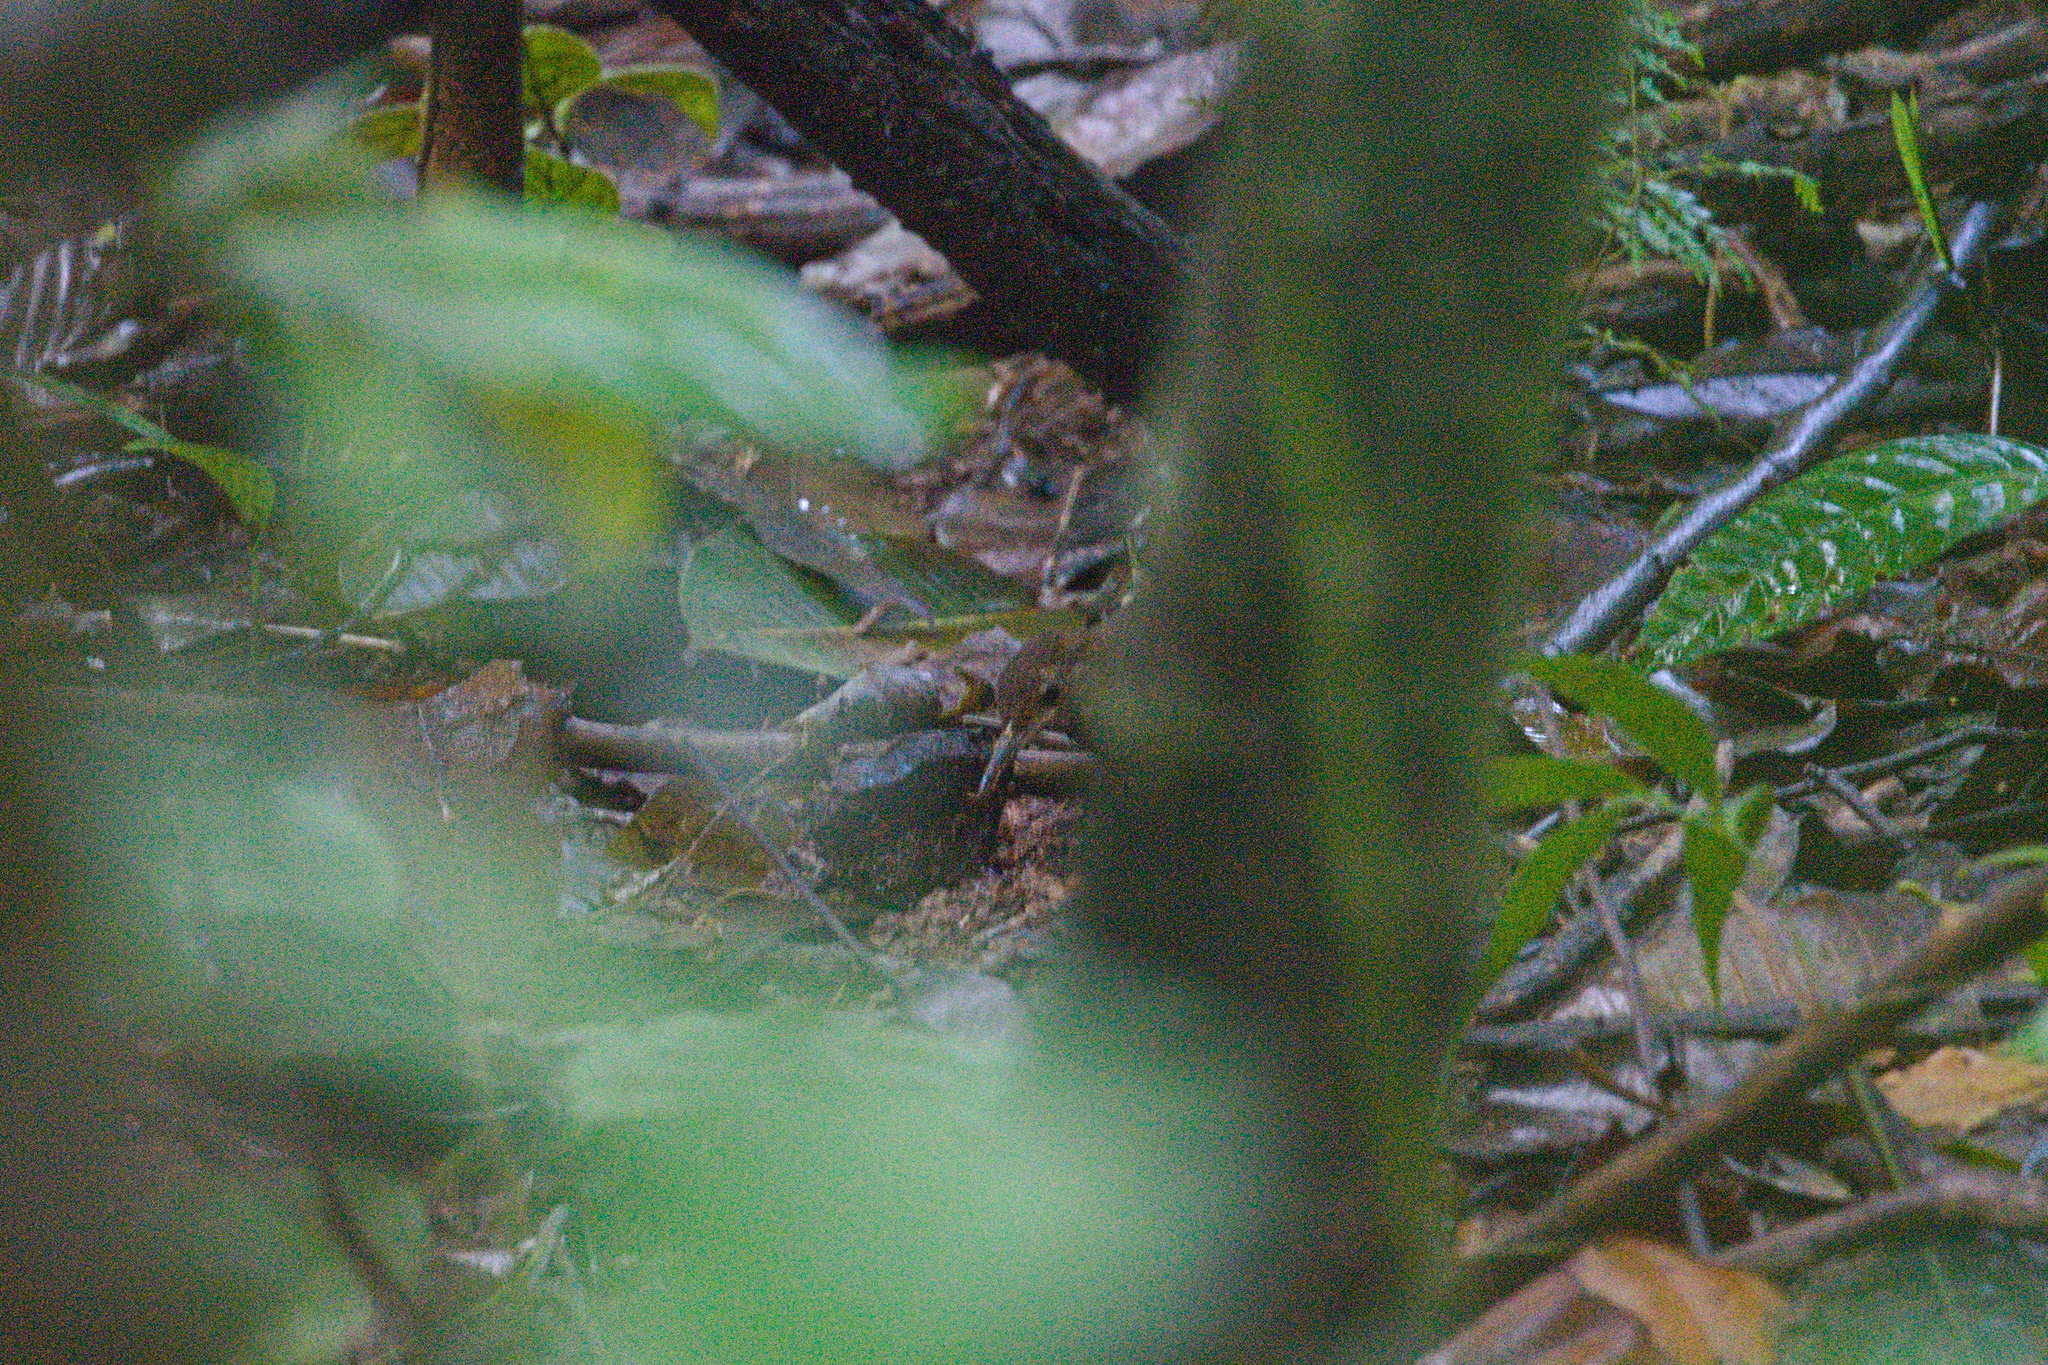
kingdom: Animalia
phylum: Chordata
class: Aves
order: Passeriformes
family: Furnariidae
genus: Sclerurus
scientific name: Sclerurus guatemalensis
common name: Scaly-throated leaftosser
